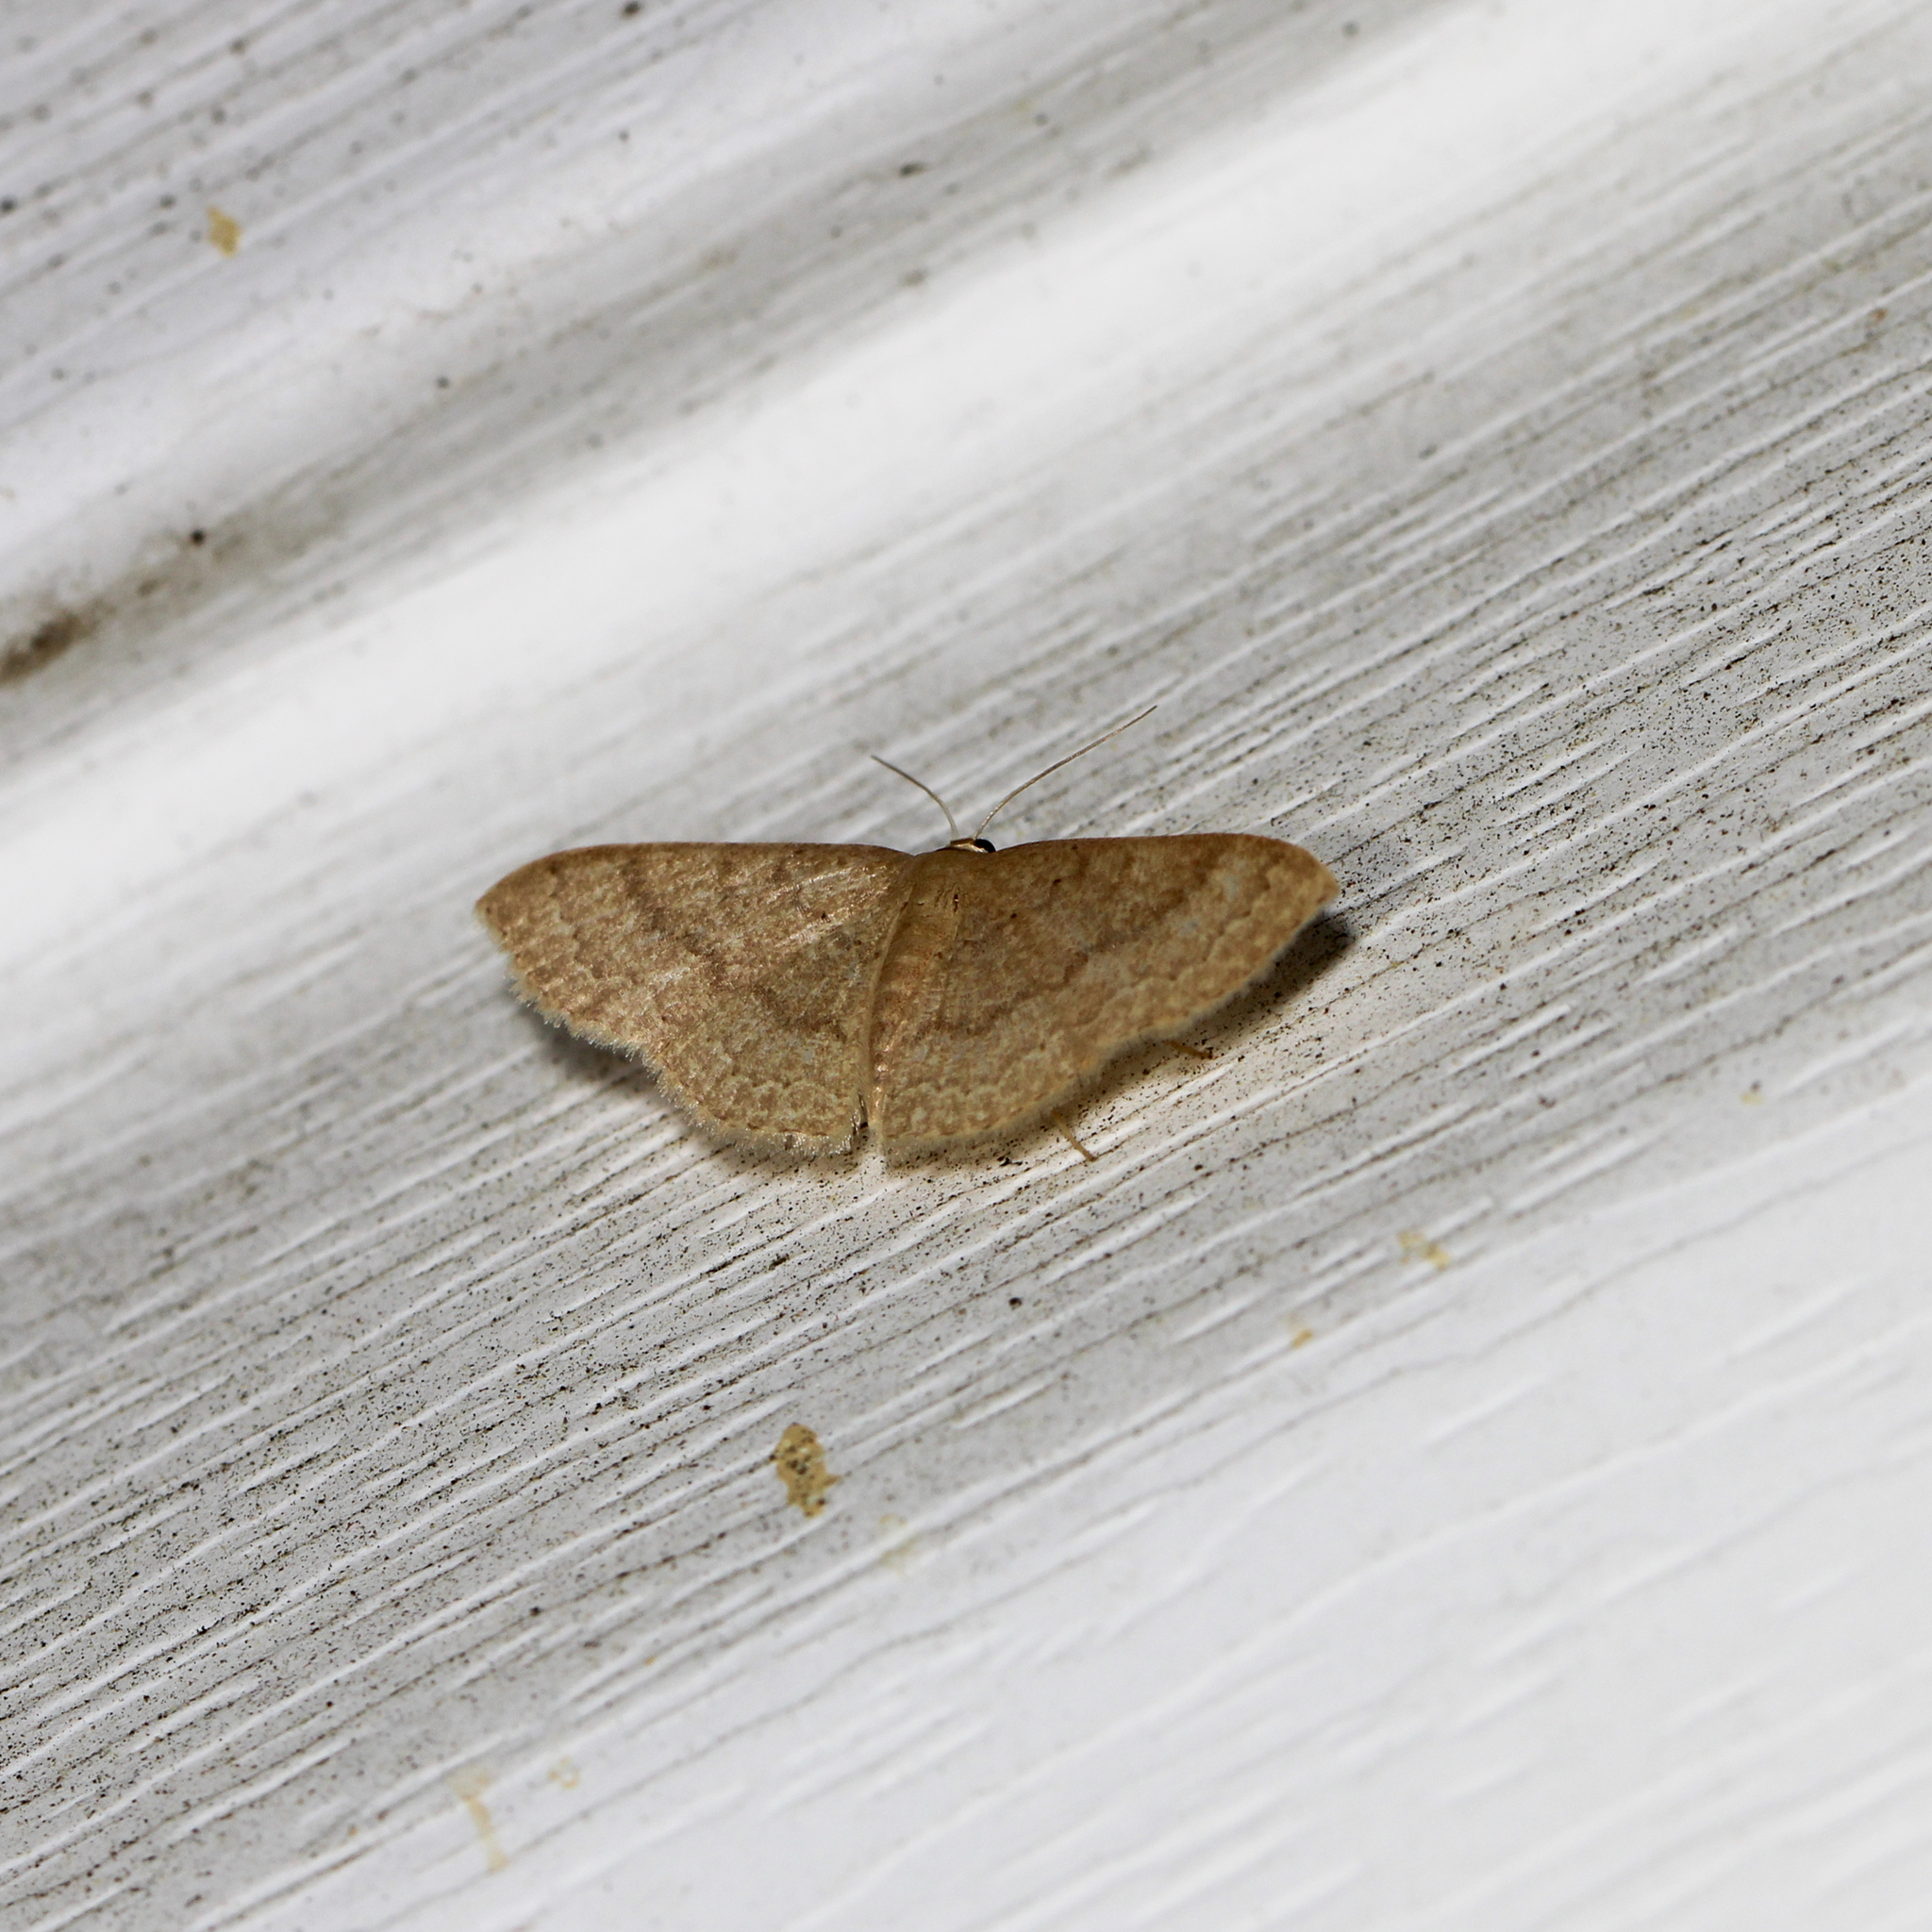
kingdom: Animalia
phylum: Arthropoda
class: Insecta
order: Lepidoptera
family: Geometridae
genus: Pleuroprucha
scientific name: Pleuroprucha insulsaria
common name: Common tan wave
